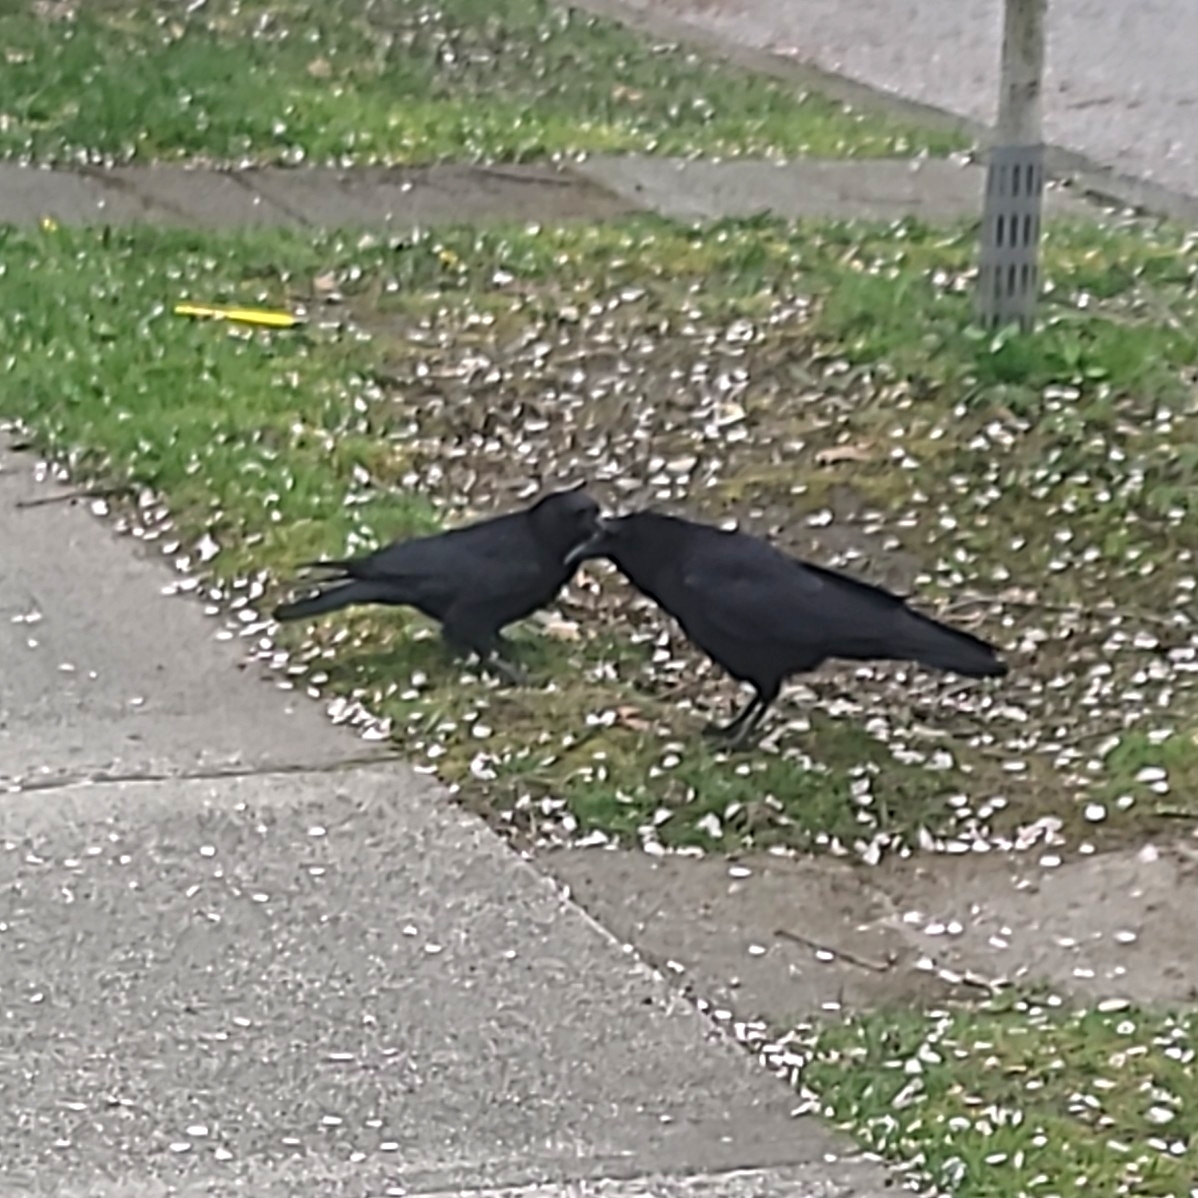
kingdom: Animalia
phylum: Chordata
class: Aves
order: Passeriformes
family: Corvidae
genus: Corvus
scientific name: Corvus brachyrhynchos
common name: American crow
